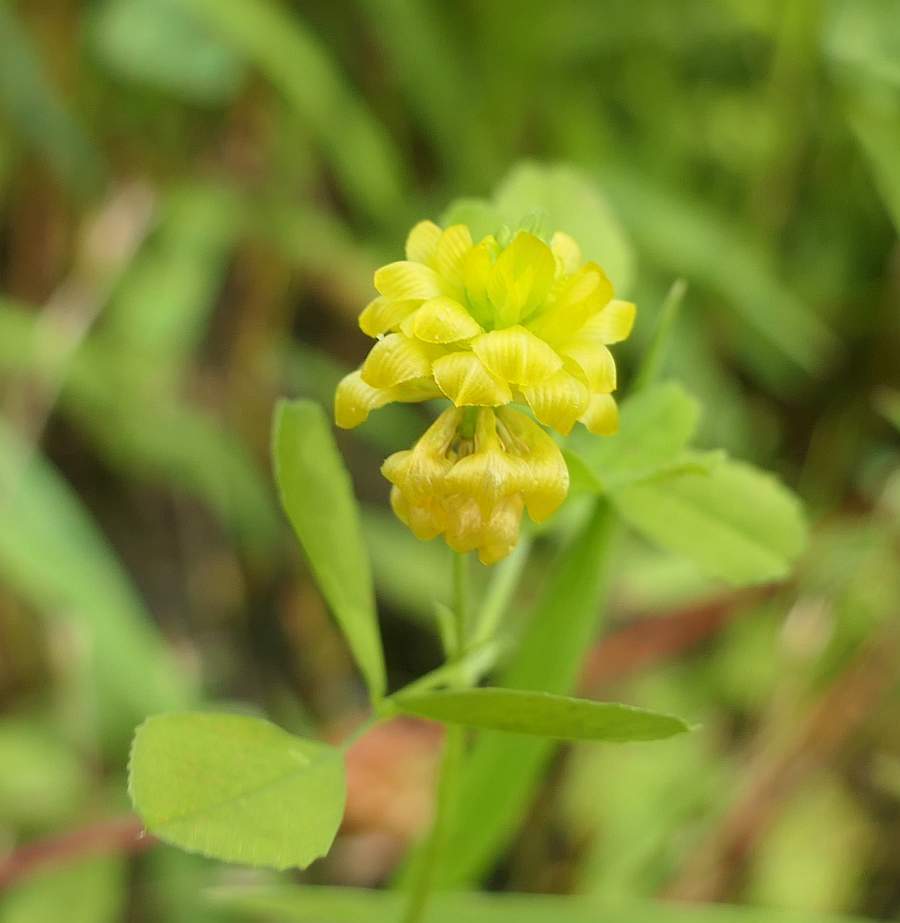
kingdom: Plantae
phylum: Tracheophyta
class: Magnoliopsida
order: Fabales
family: Fabaceae
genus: Trifolium
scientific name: Trifolium campestre
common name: Field clover
